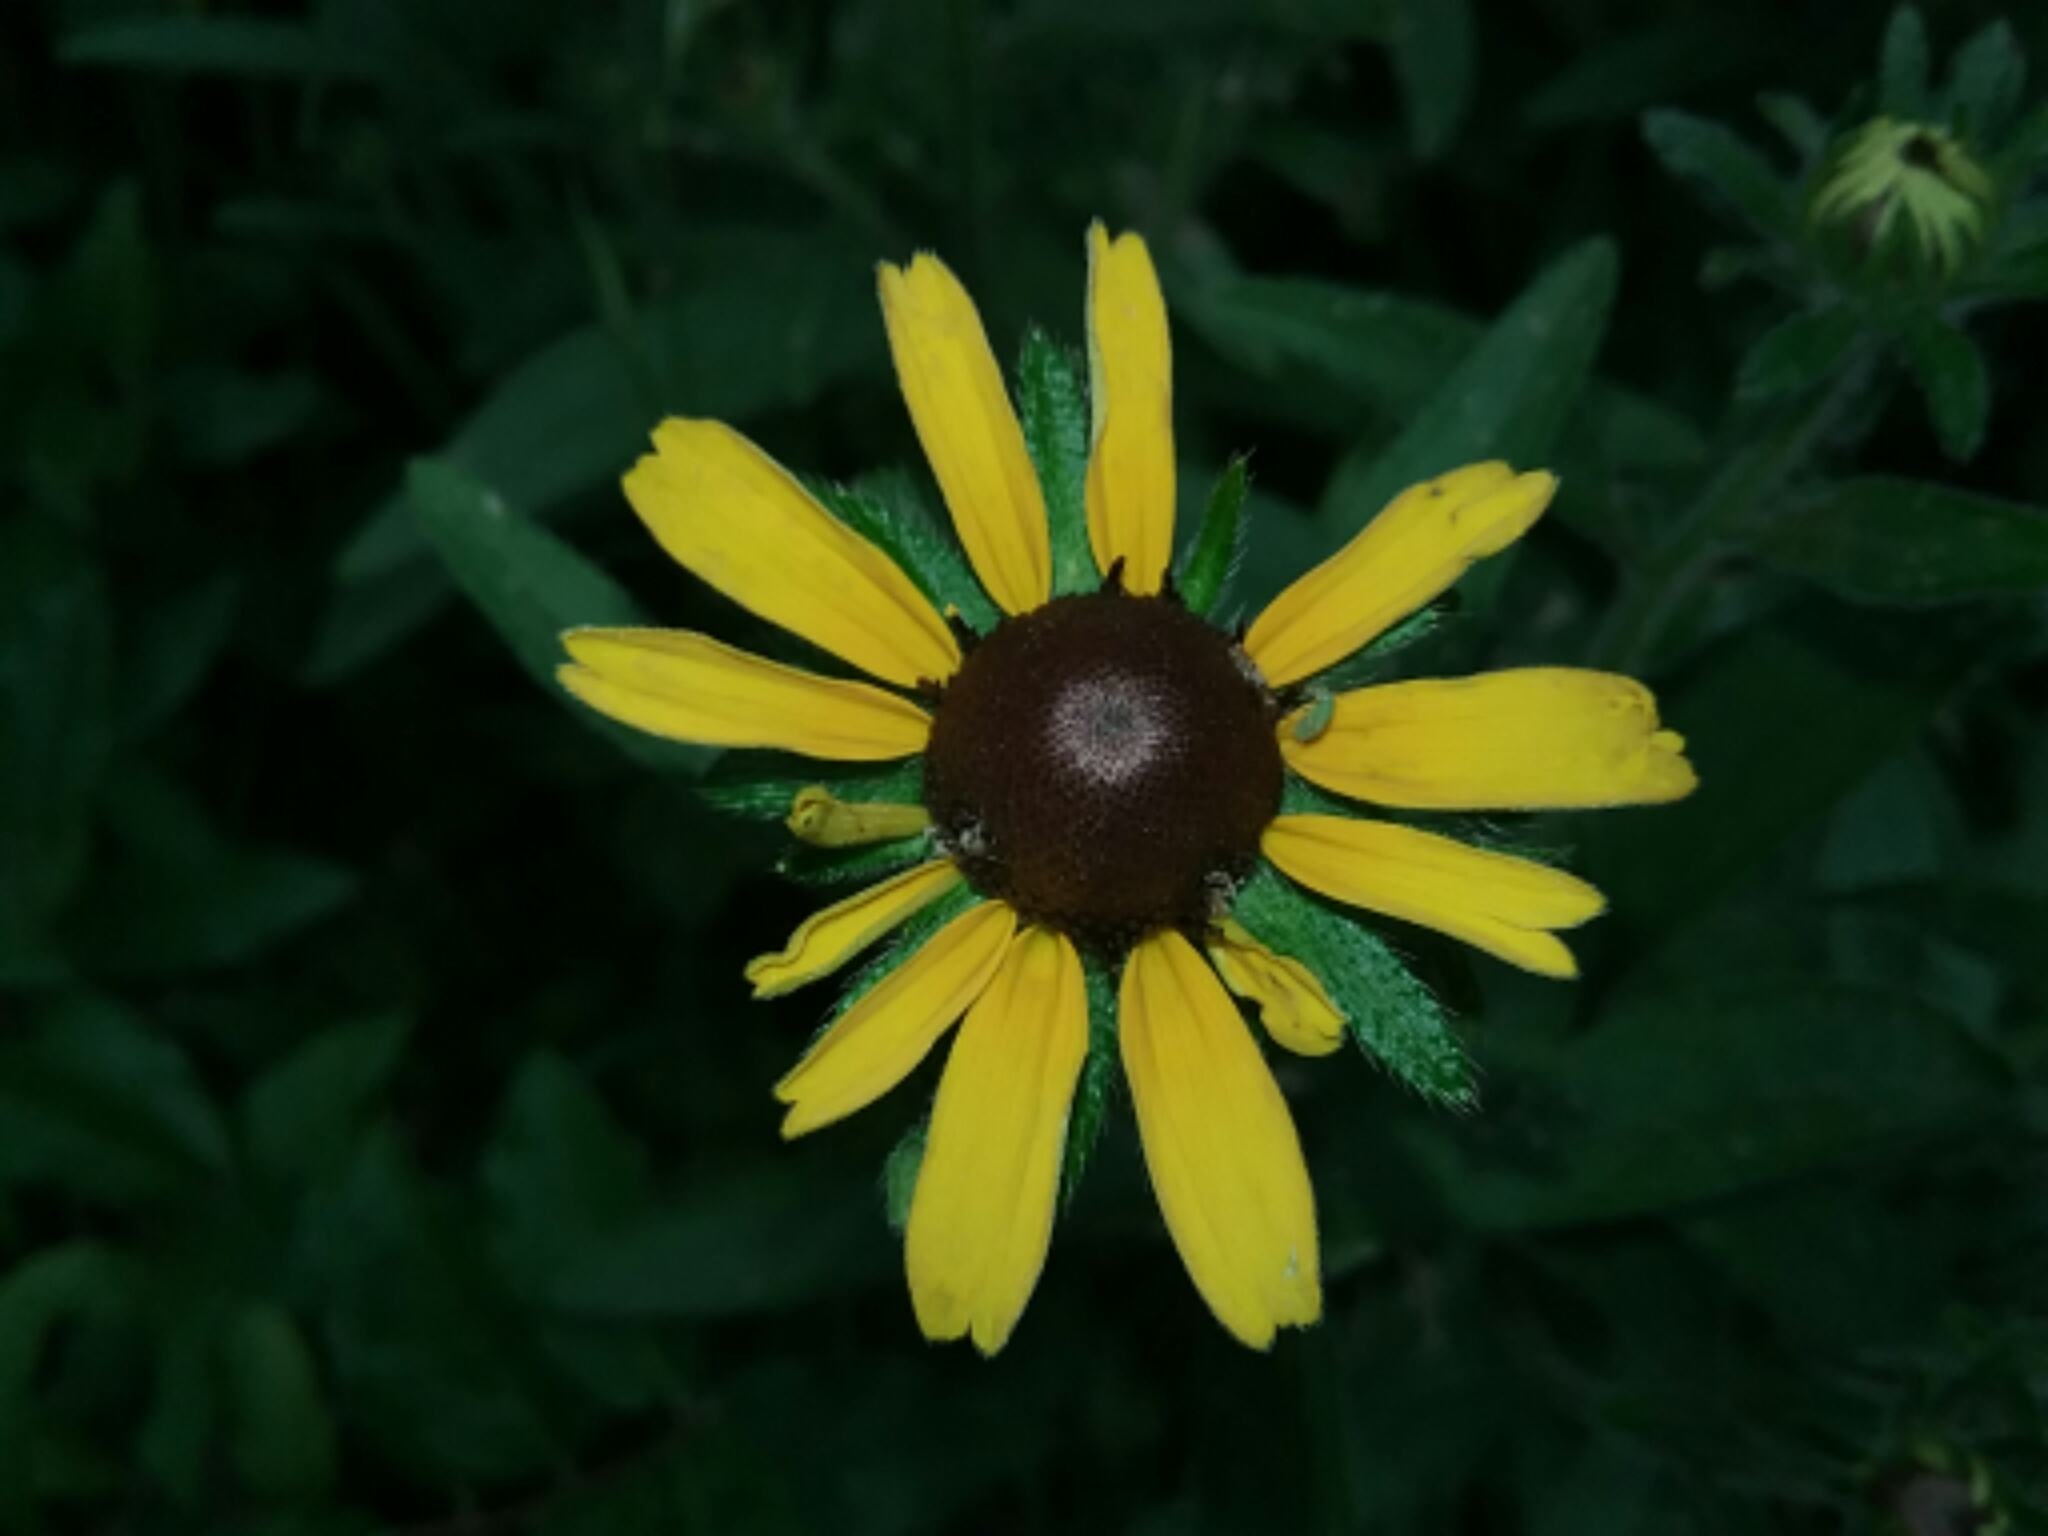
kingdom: Plantae
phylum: Tracheophyta
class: Magnoliopsida
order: Asterales
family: Asteraceae
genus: Rudbeckia
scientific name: Rudbeckia hirta
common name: Black-eyed-susan
